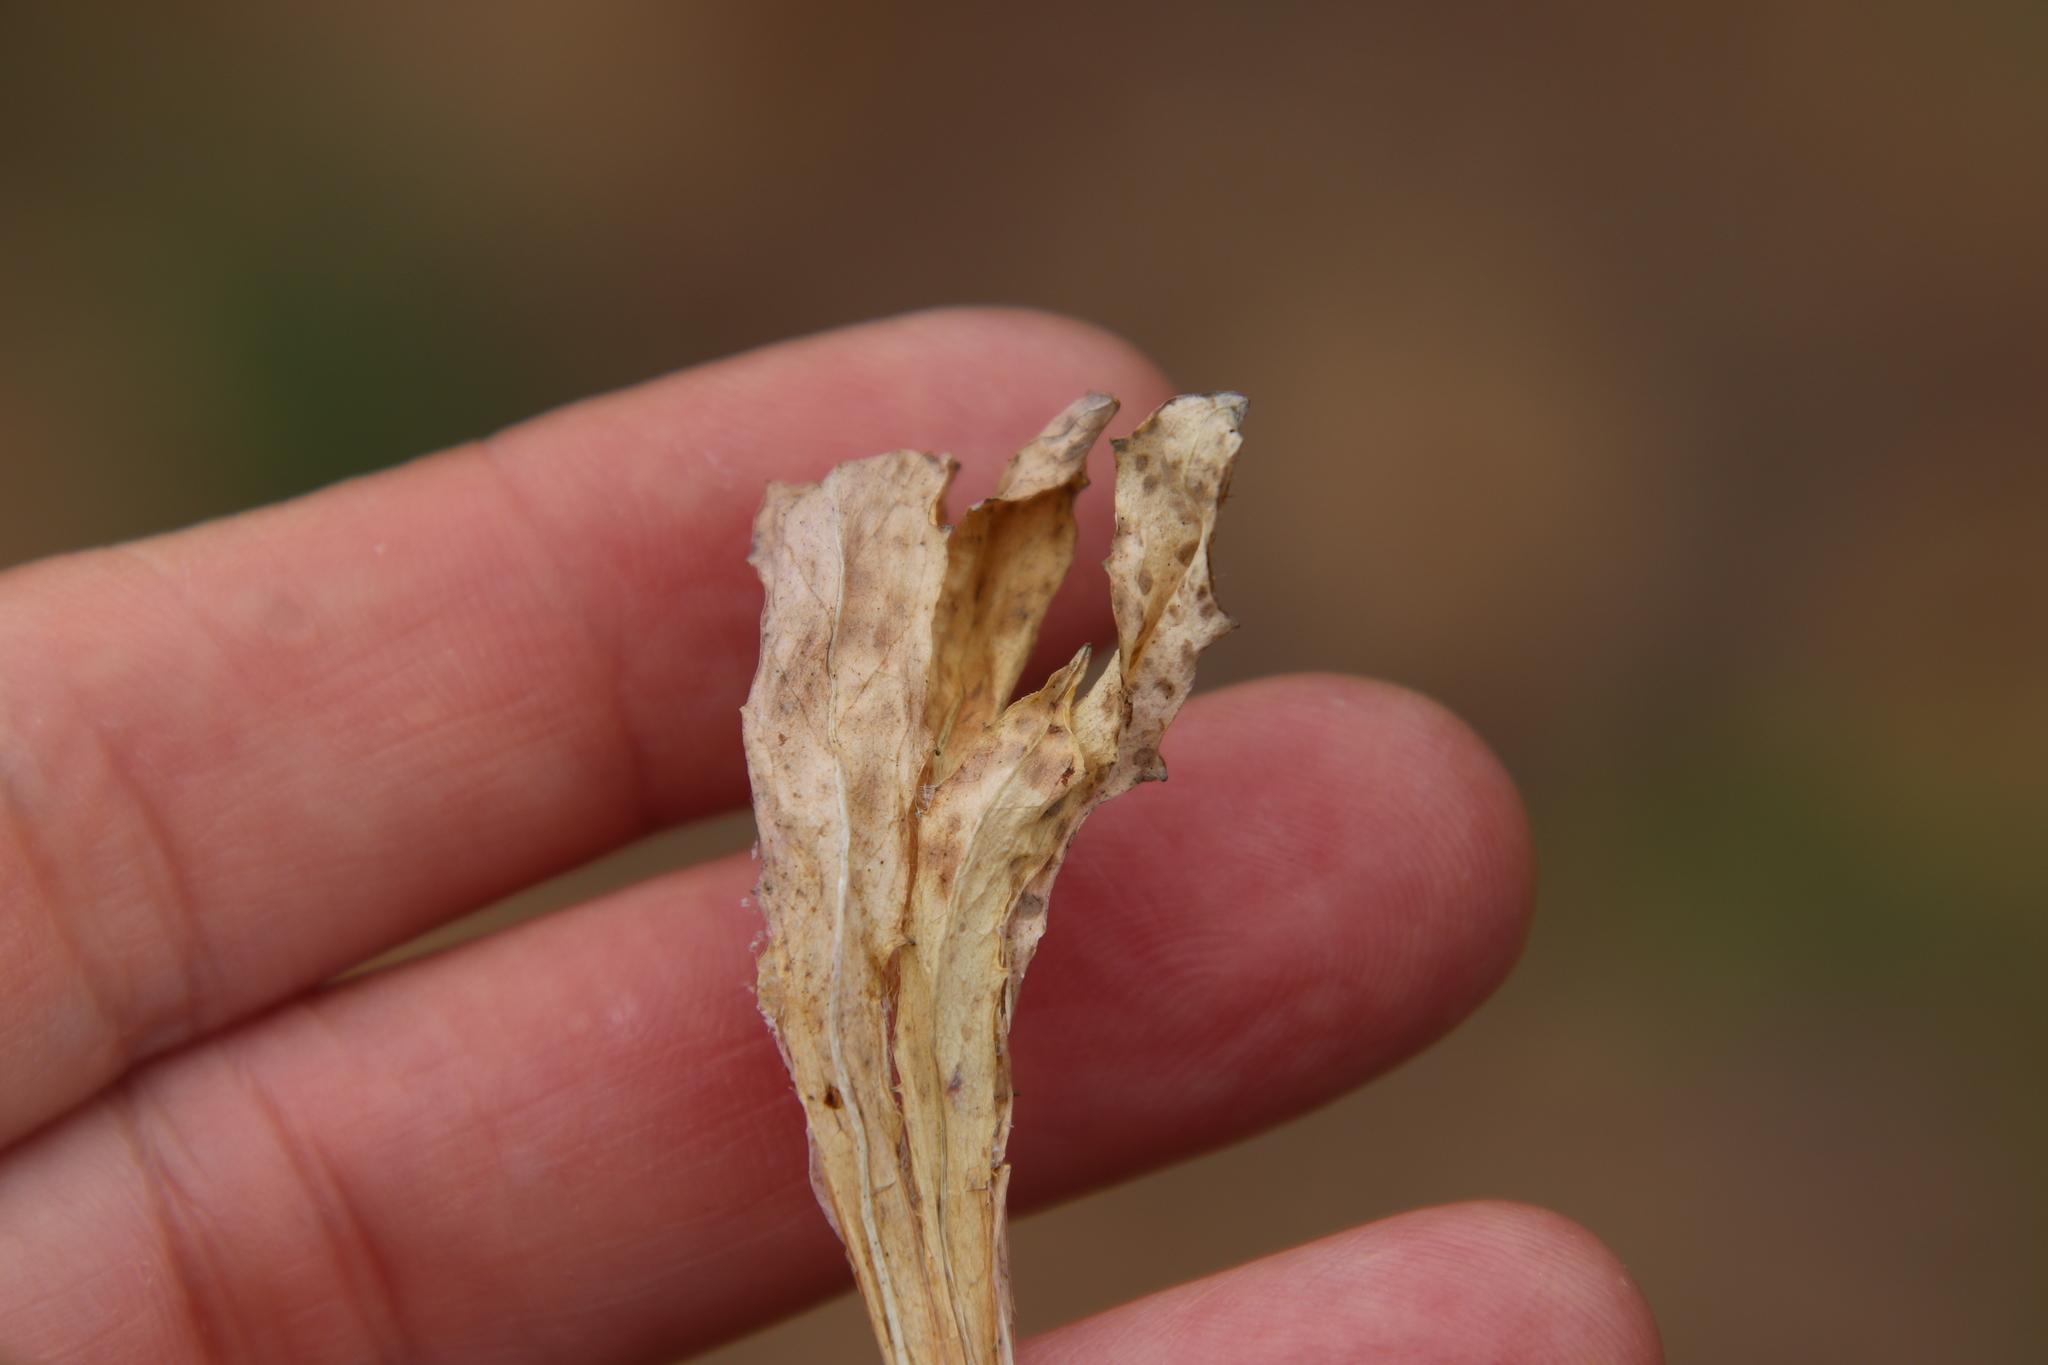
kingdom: Plantae
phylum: Tracheophyta
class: Magnoliopsida
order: Asterales
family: Asteraceae
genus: Hypochaeris
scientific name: Hypochaeris glabra
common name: Smooth catsear
